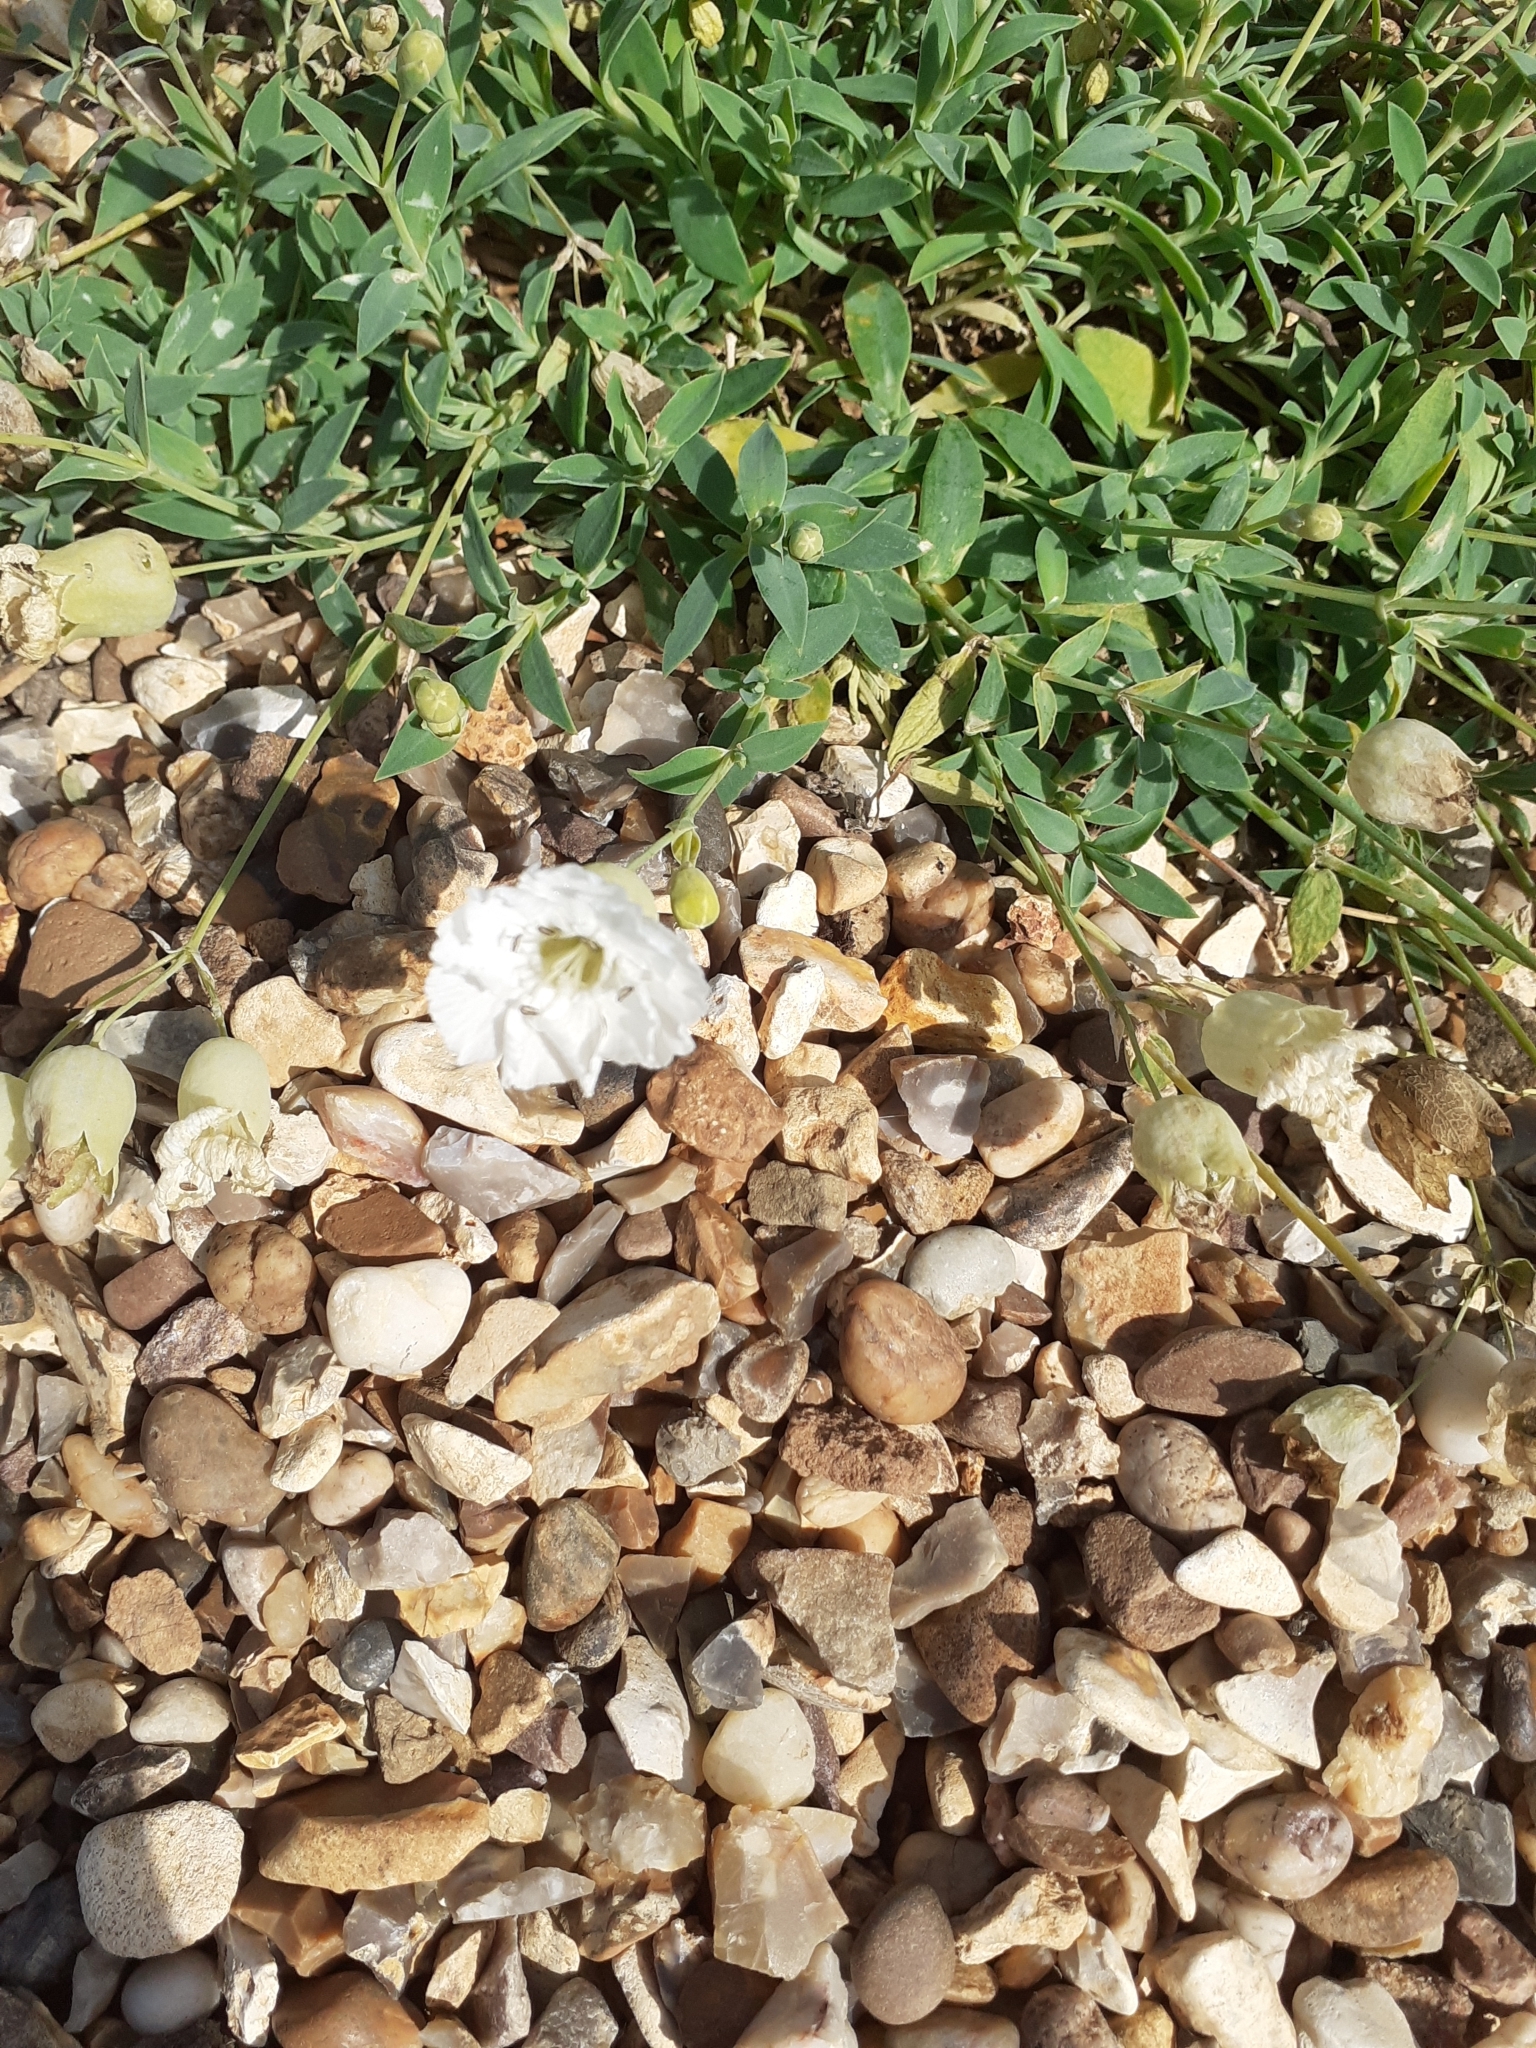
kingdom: Plantae
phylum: Tracheophyta
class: Magnoliopsida
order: Caryophyllales
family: Caryophyllaceae
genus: Silene
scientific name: Silene uniflora
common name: Sea campion
